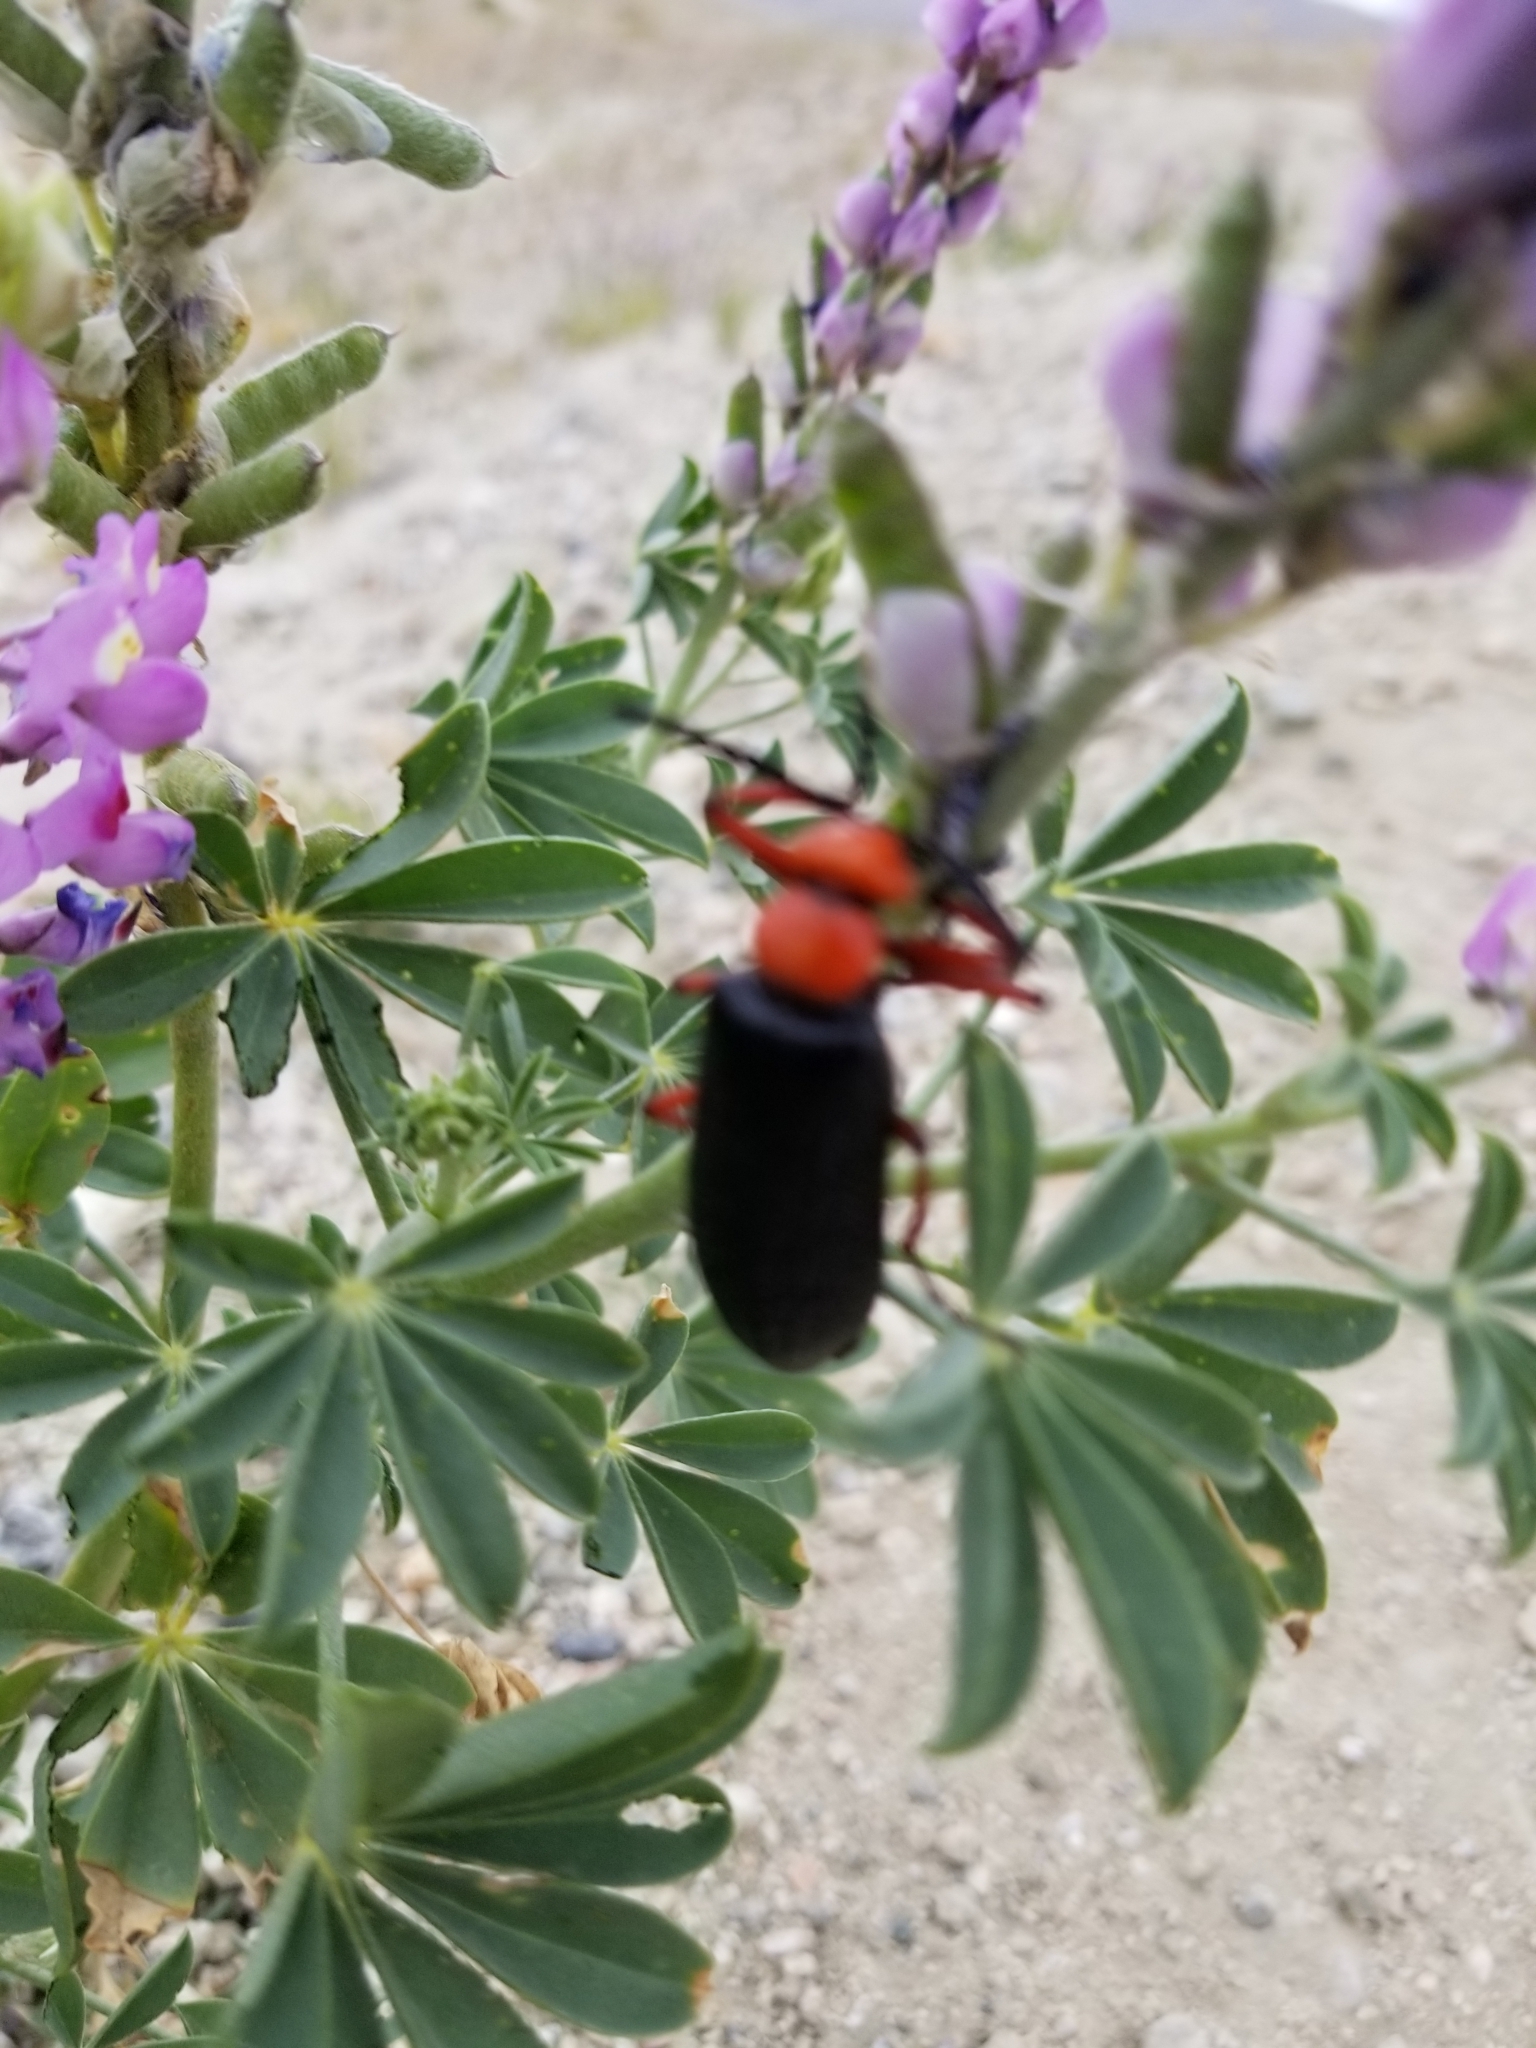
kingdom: Animalia
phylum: Arthropoda
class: Insecta
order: Coleoptera
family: Meloidae
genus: Lytta
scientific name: Lytta magister
